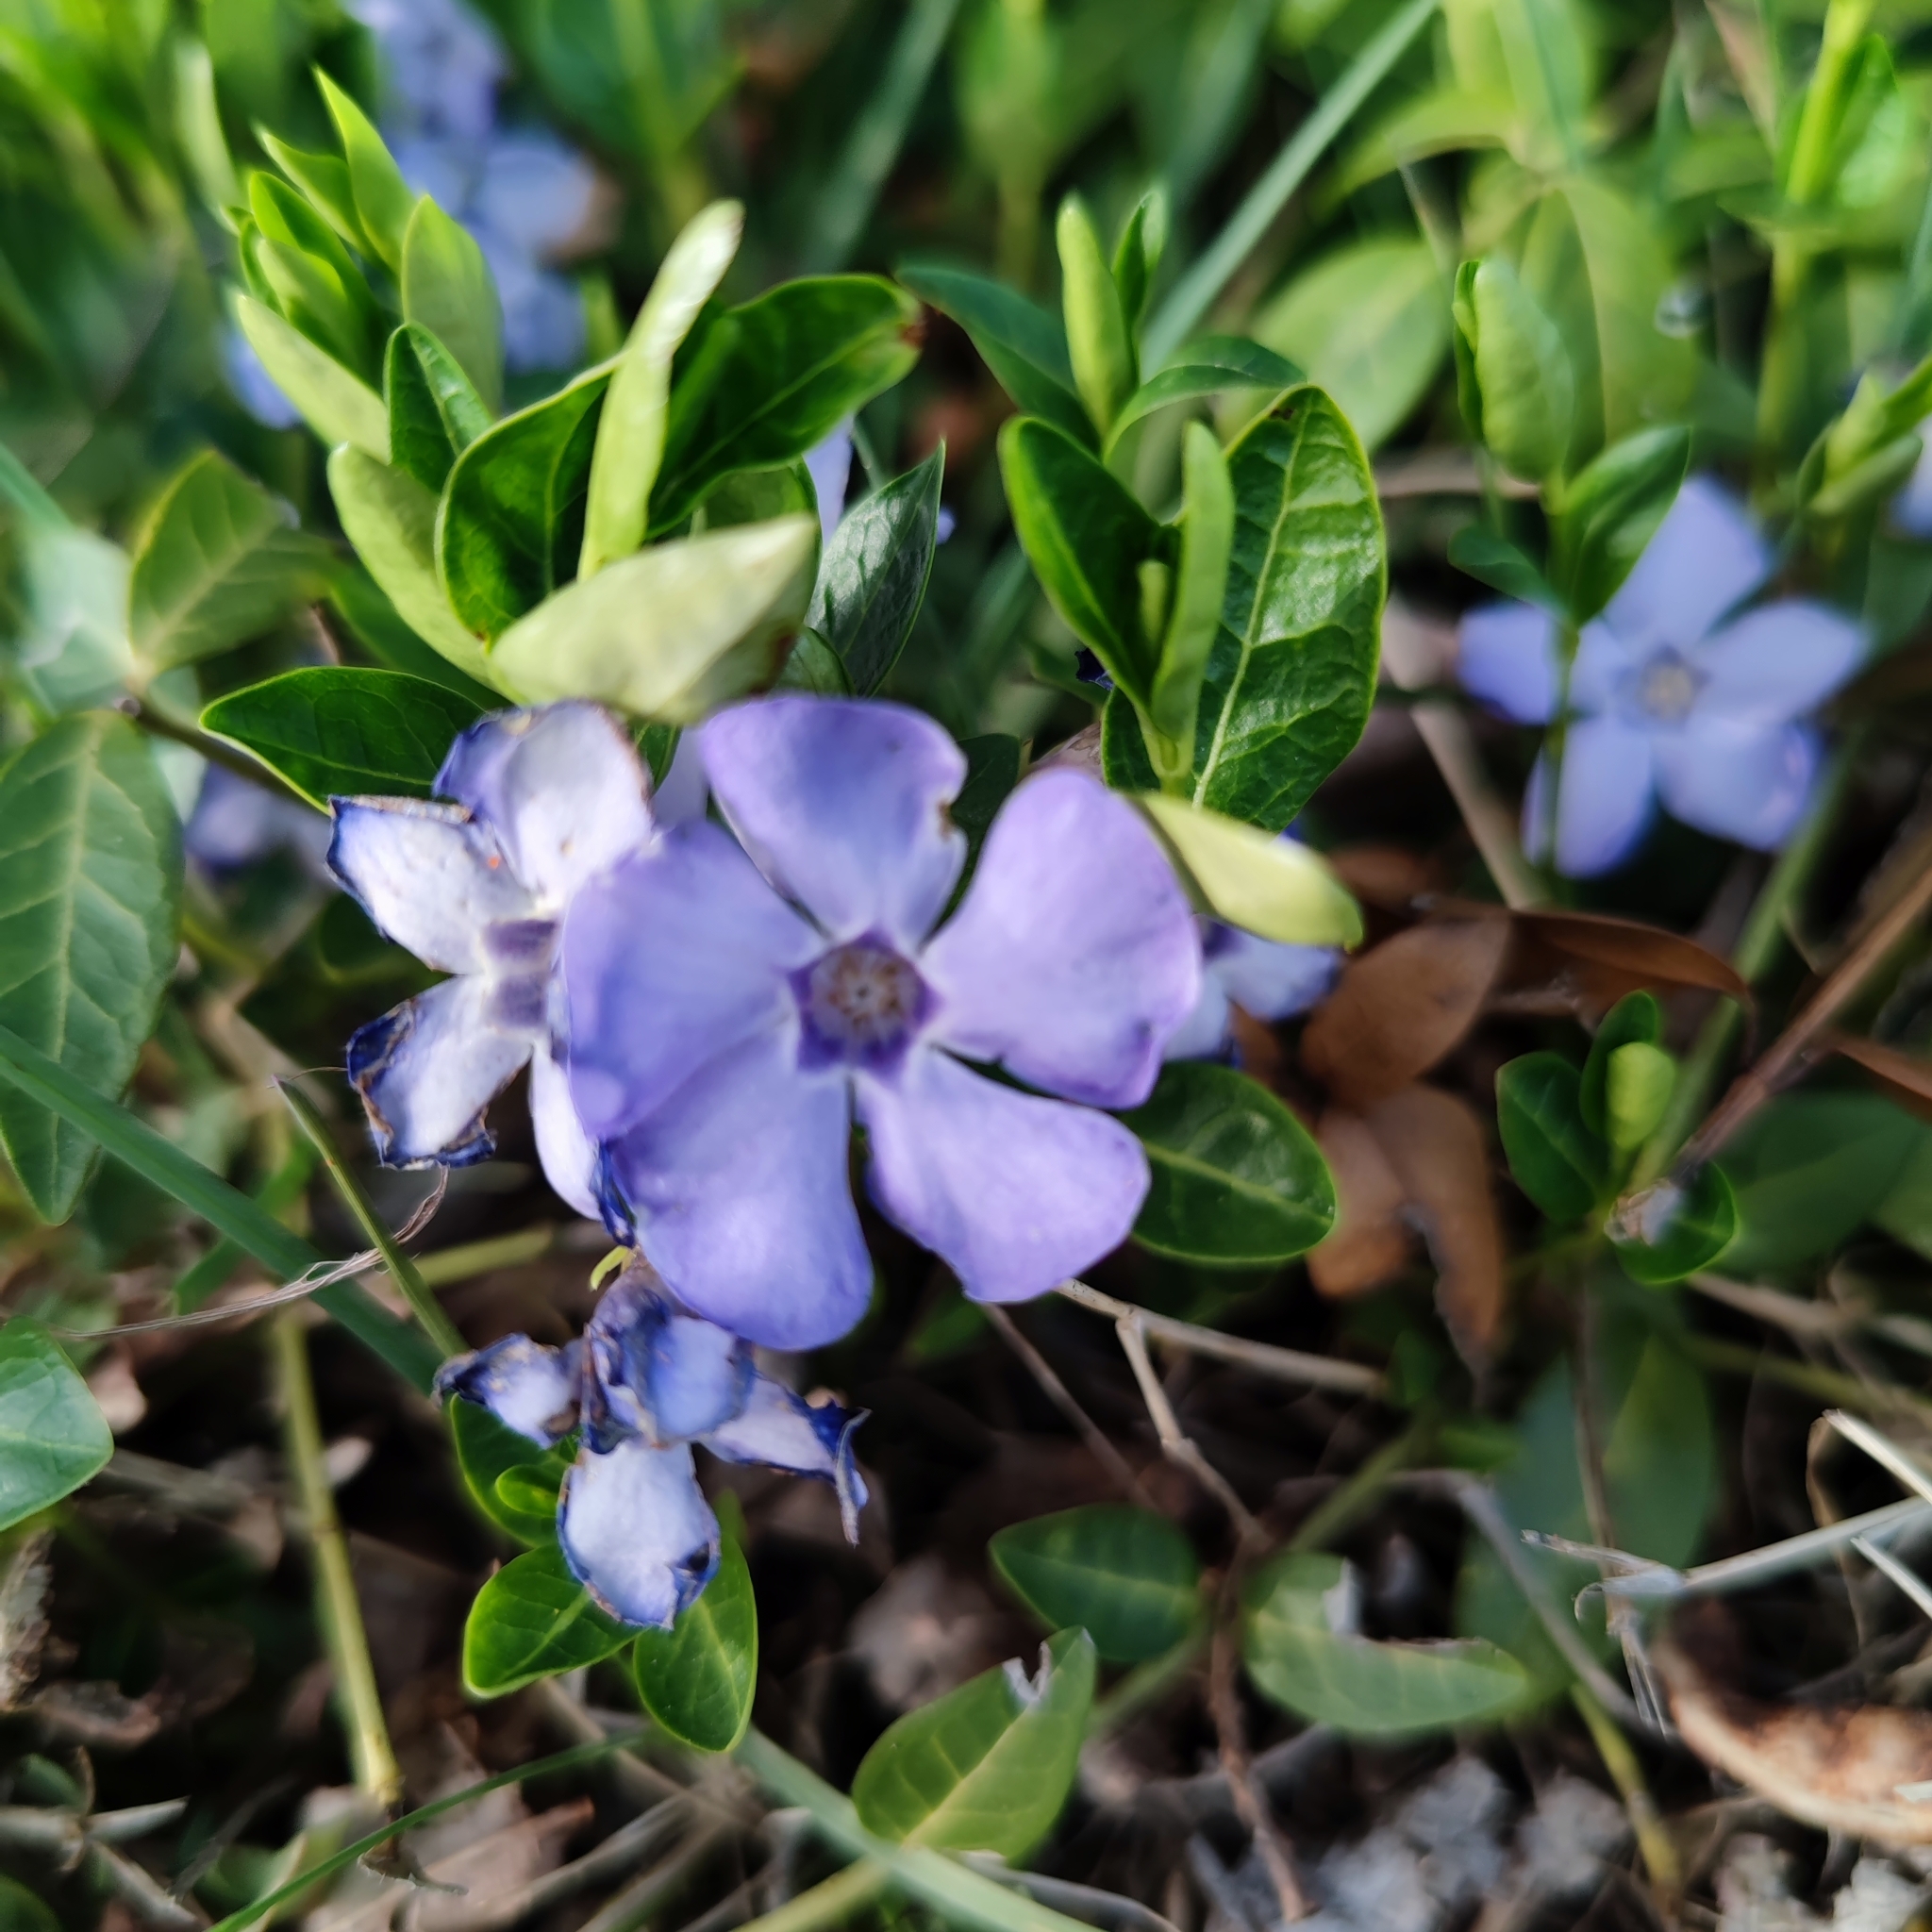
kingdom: Plantae
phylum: Tracheophyta
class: Magnoliopsida
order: Gentianales
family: Apocynaceae
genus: Vinca
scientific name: Vinca minor
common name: Lesser periwinkle
